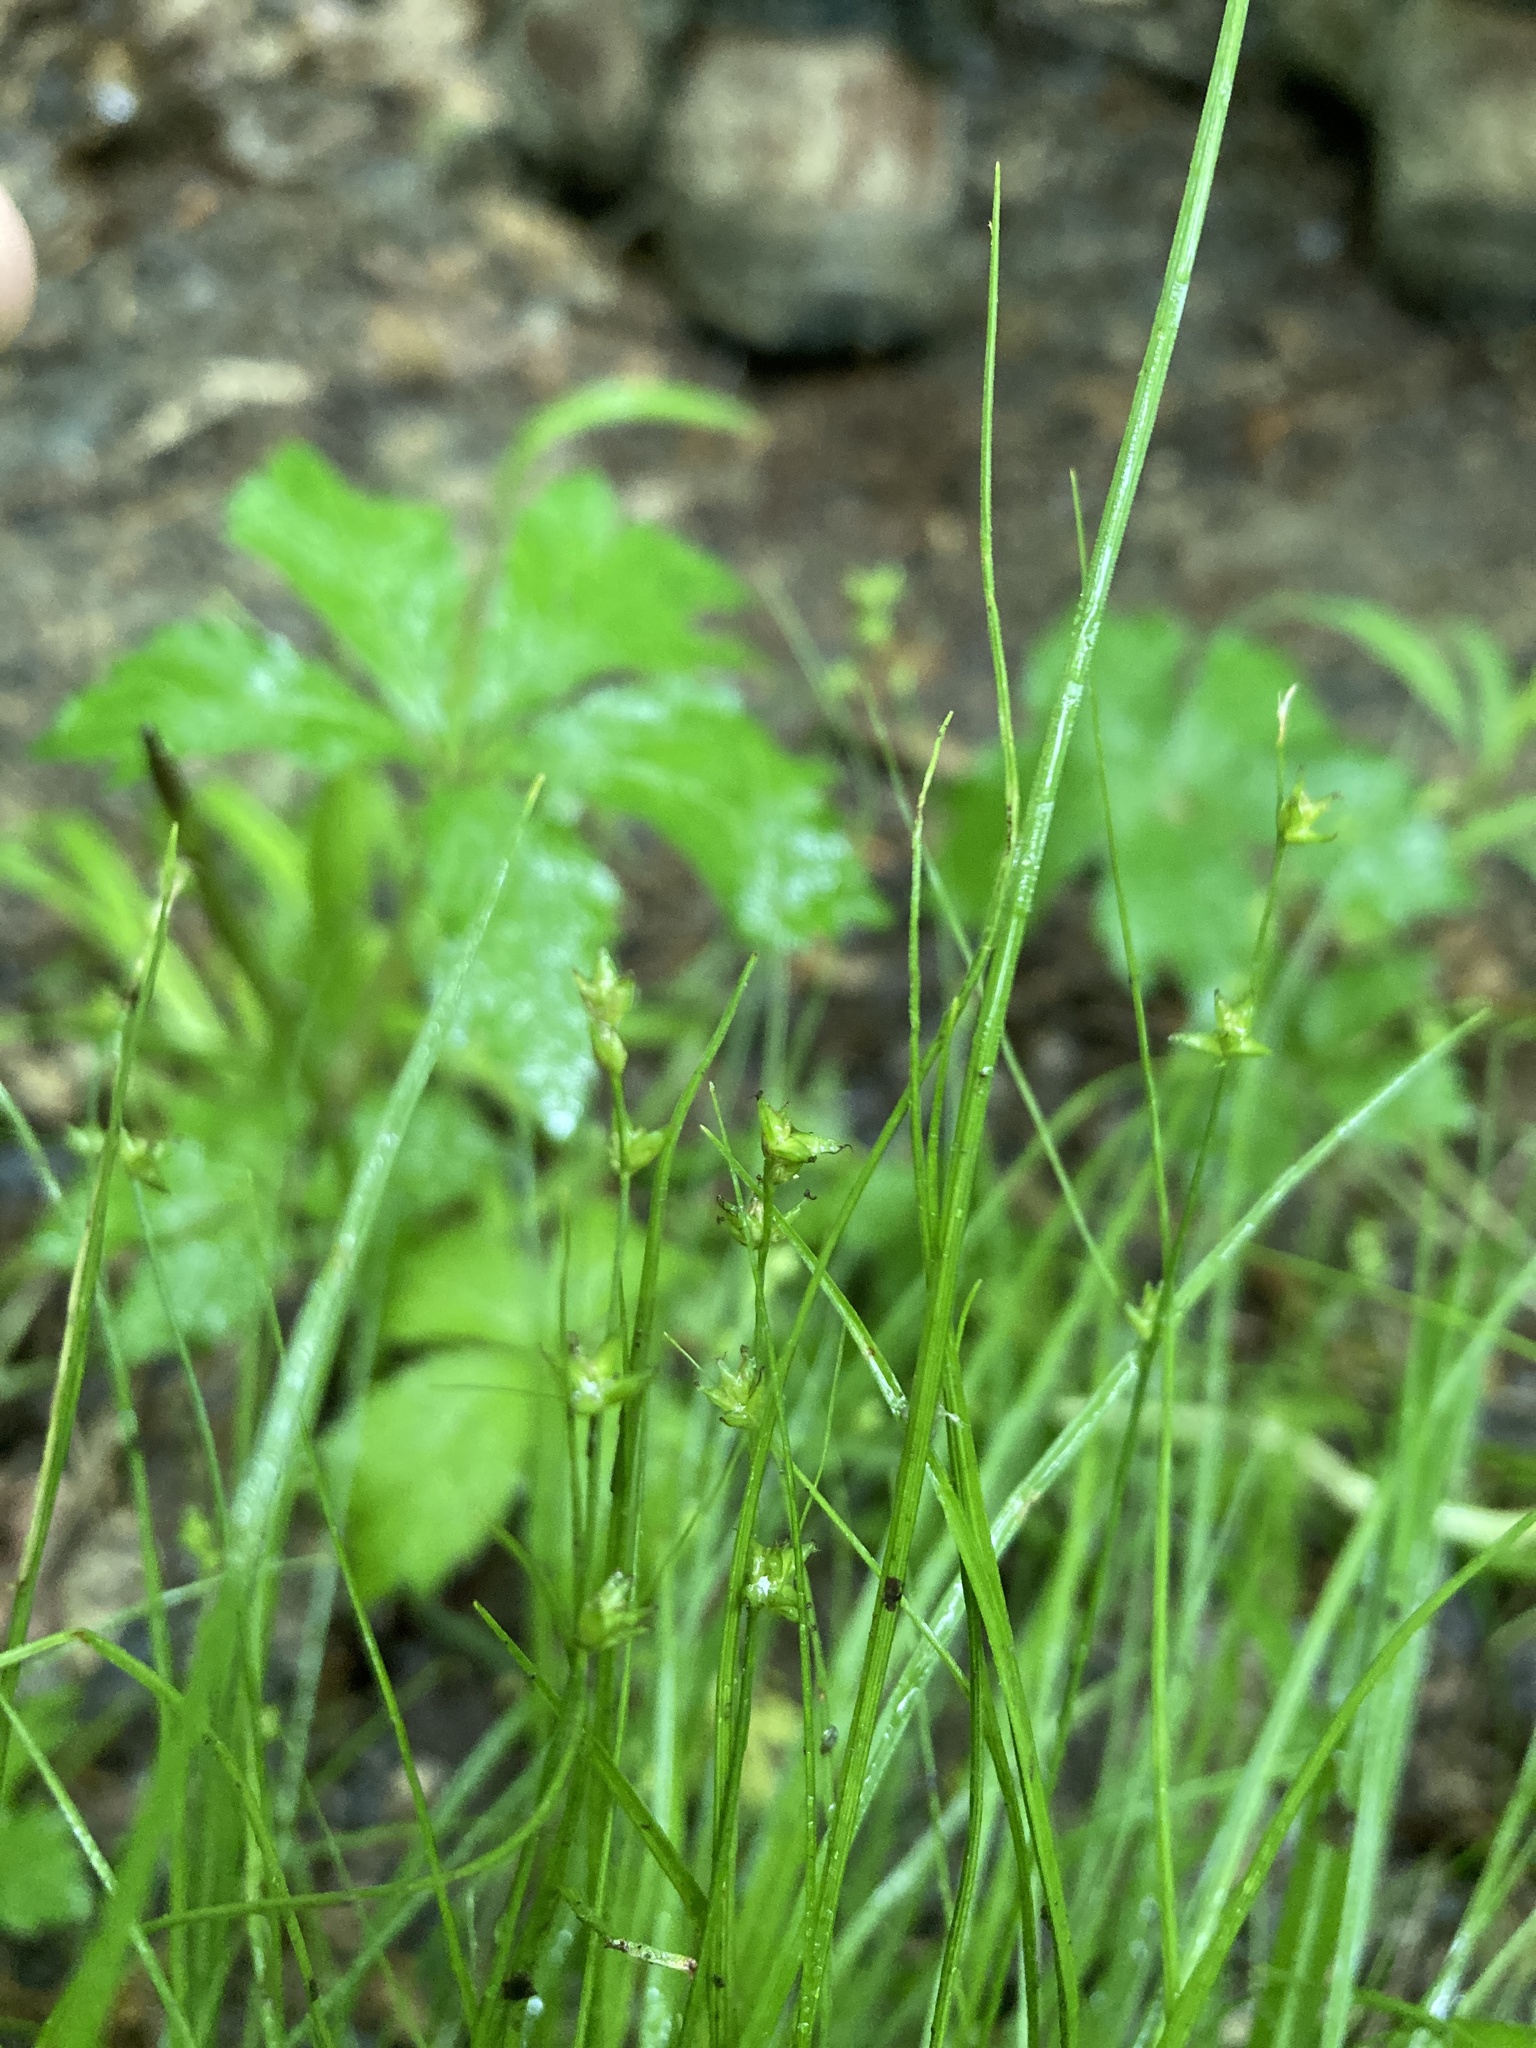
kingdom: Plantae
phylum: Tracheophyta
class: Liliopsida
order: Poales
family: Cyperaceae
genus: Carex
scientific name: Carex radiata
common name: Eastern star sedge
